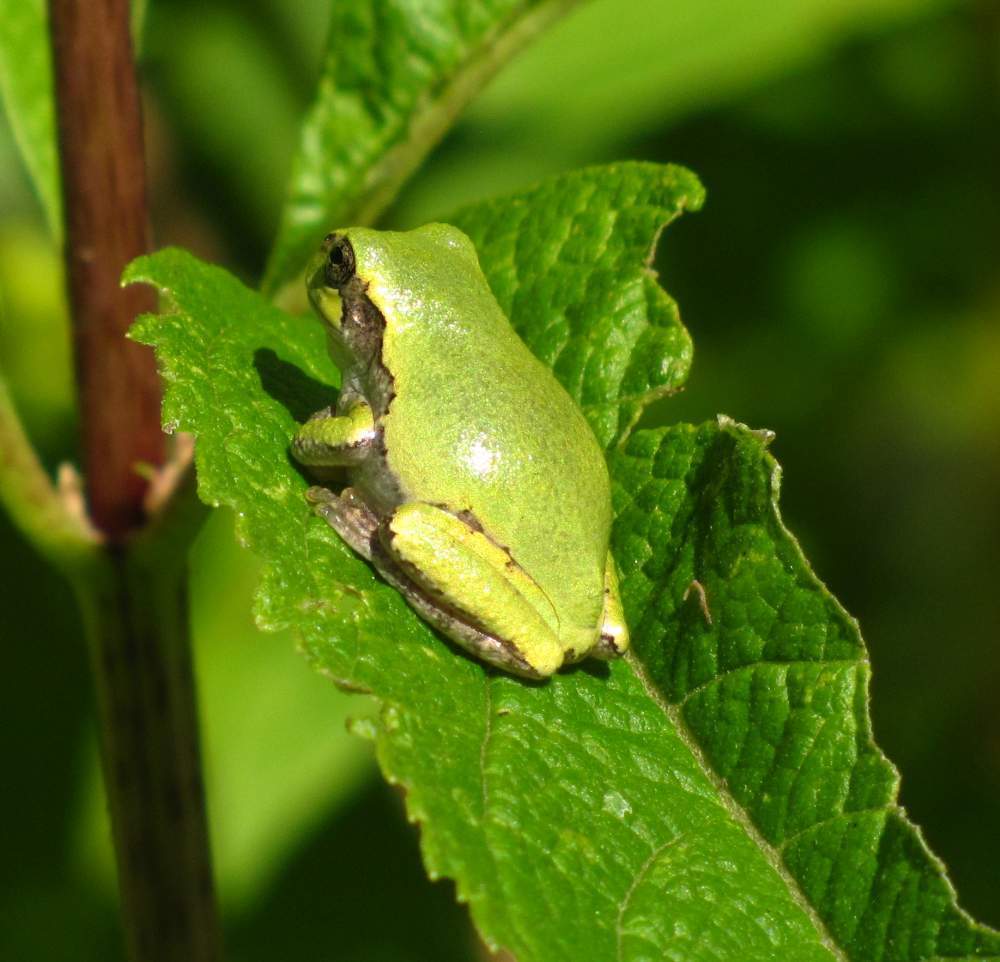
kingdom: Animalia
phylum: Chordata
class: Amphibia
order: Anura
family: Hylidae
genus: Dryophytes
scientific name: Dryophytes versicolor
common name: Gray treefrog
